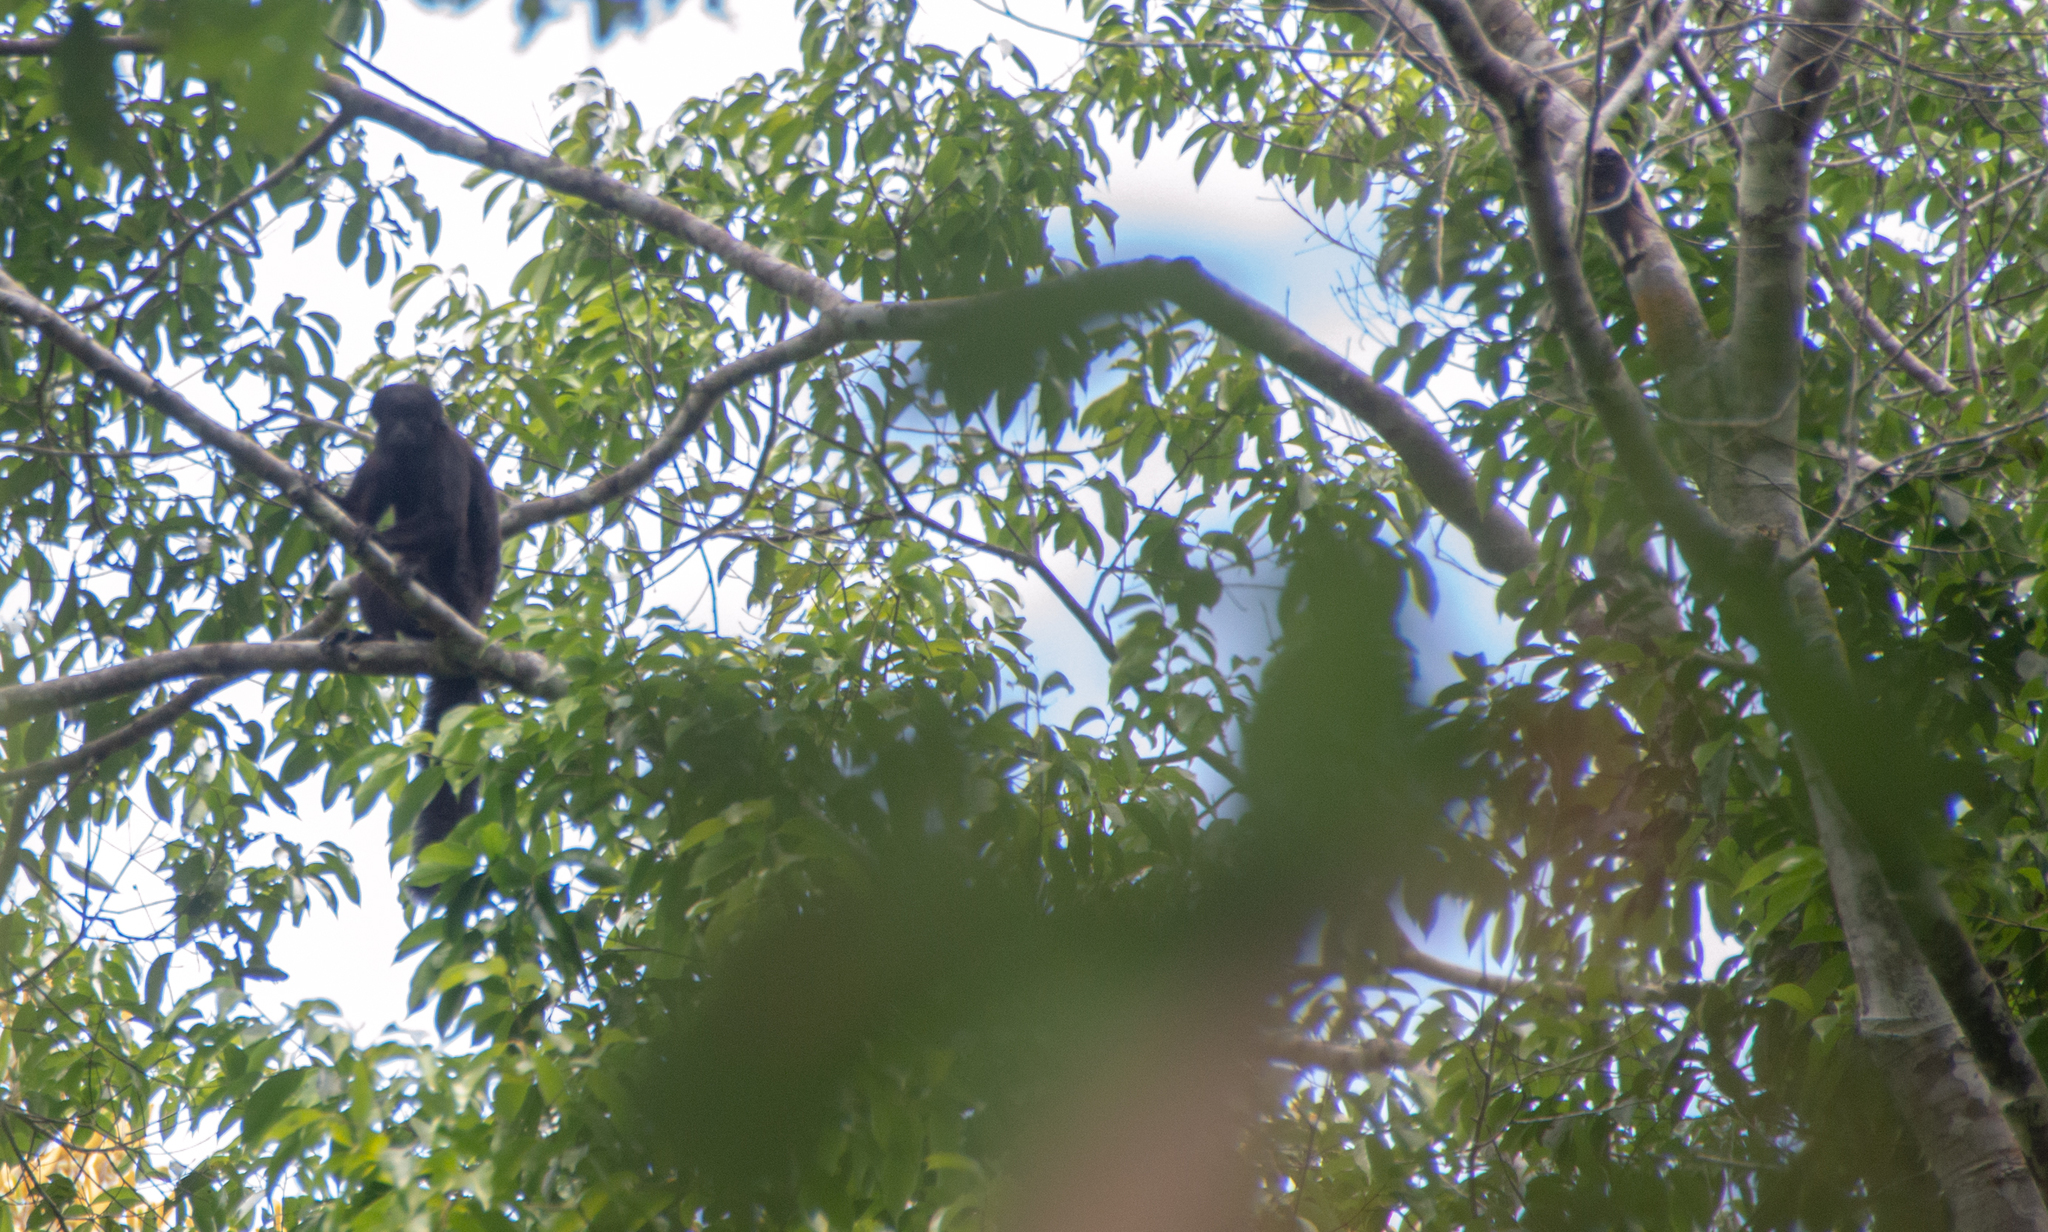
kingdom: Animalia
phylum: Chordata
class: Mammalia
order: Primates
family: Pitheciidae
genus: Chiropotes
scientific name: Chiropotes satanas
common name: Black bearded saki
